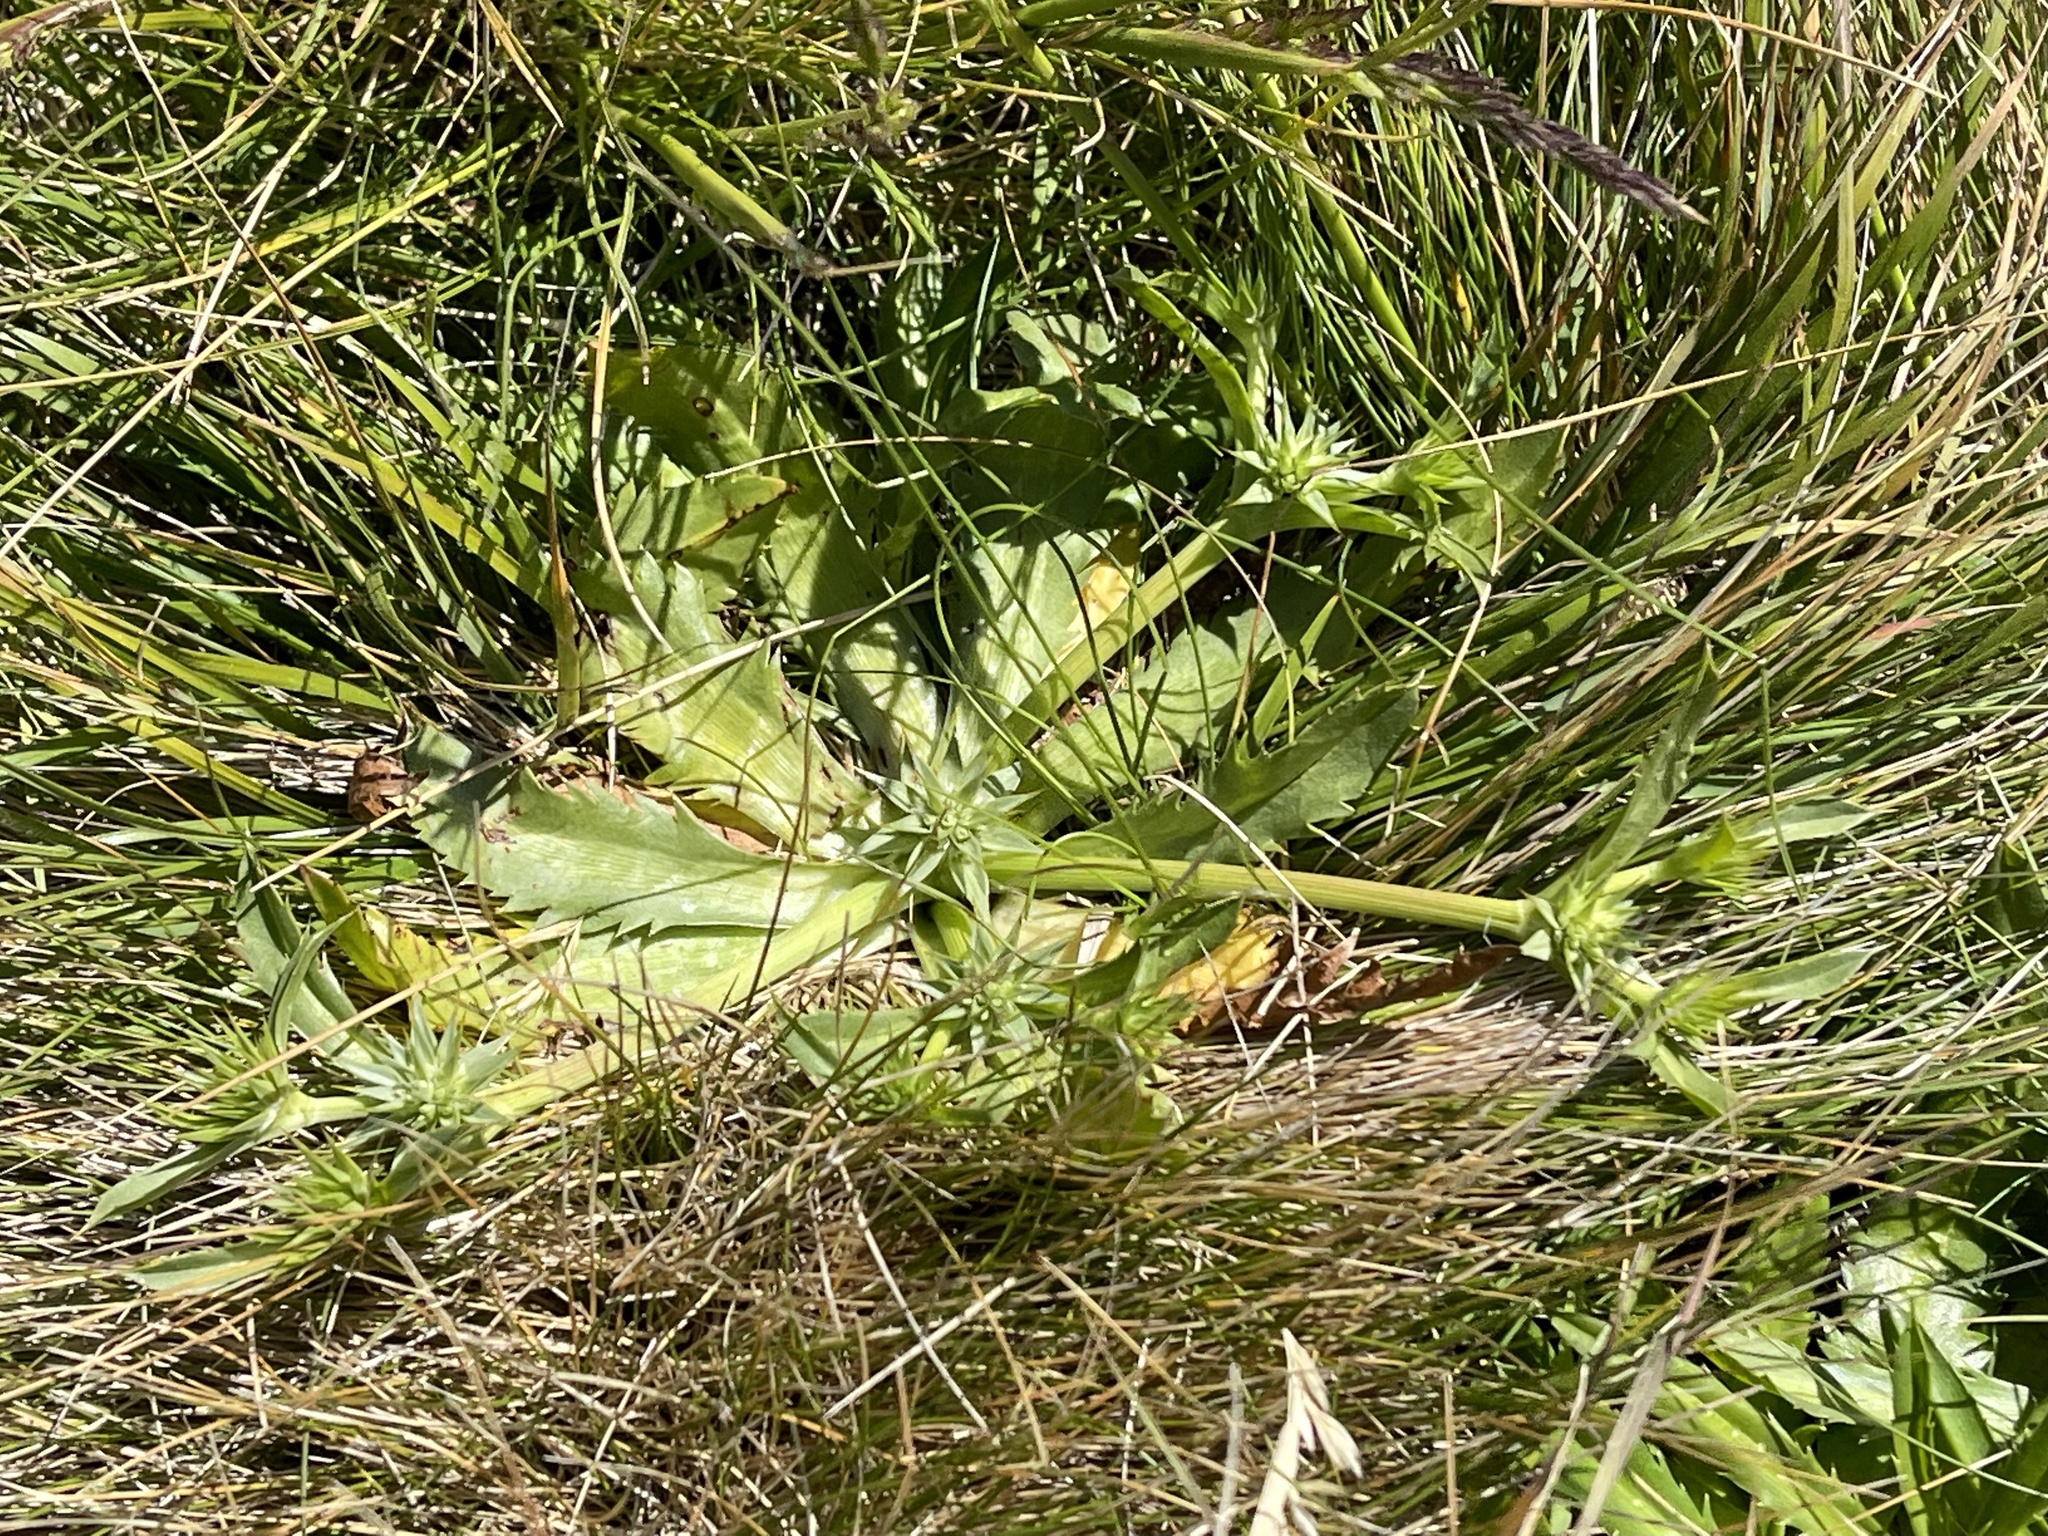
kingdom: Plantae
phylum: Tracheophyta
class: Magnoliopsida
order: Apiales
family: Apiaceae
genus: Eryngium
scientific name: Eryngium armatum
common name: Coyote thistle
